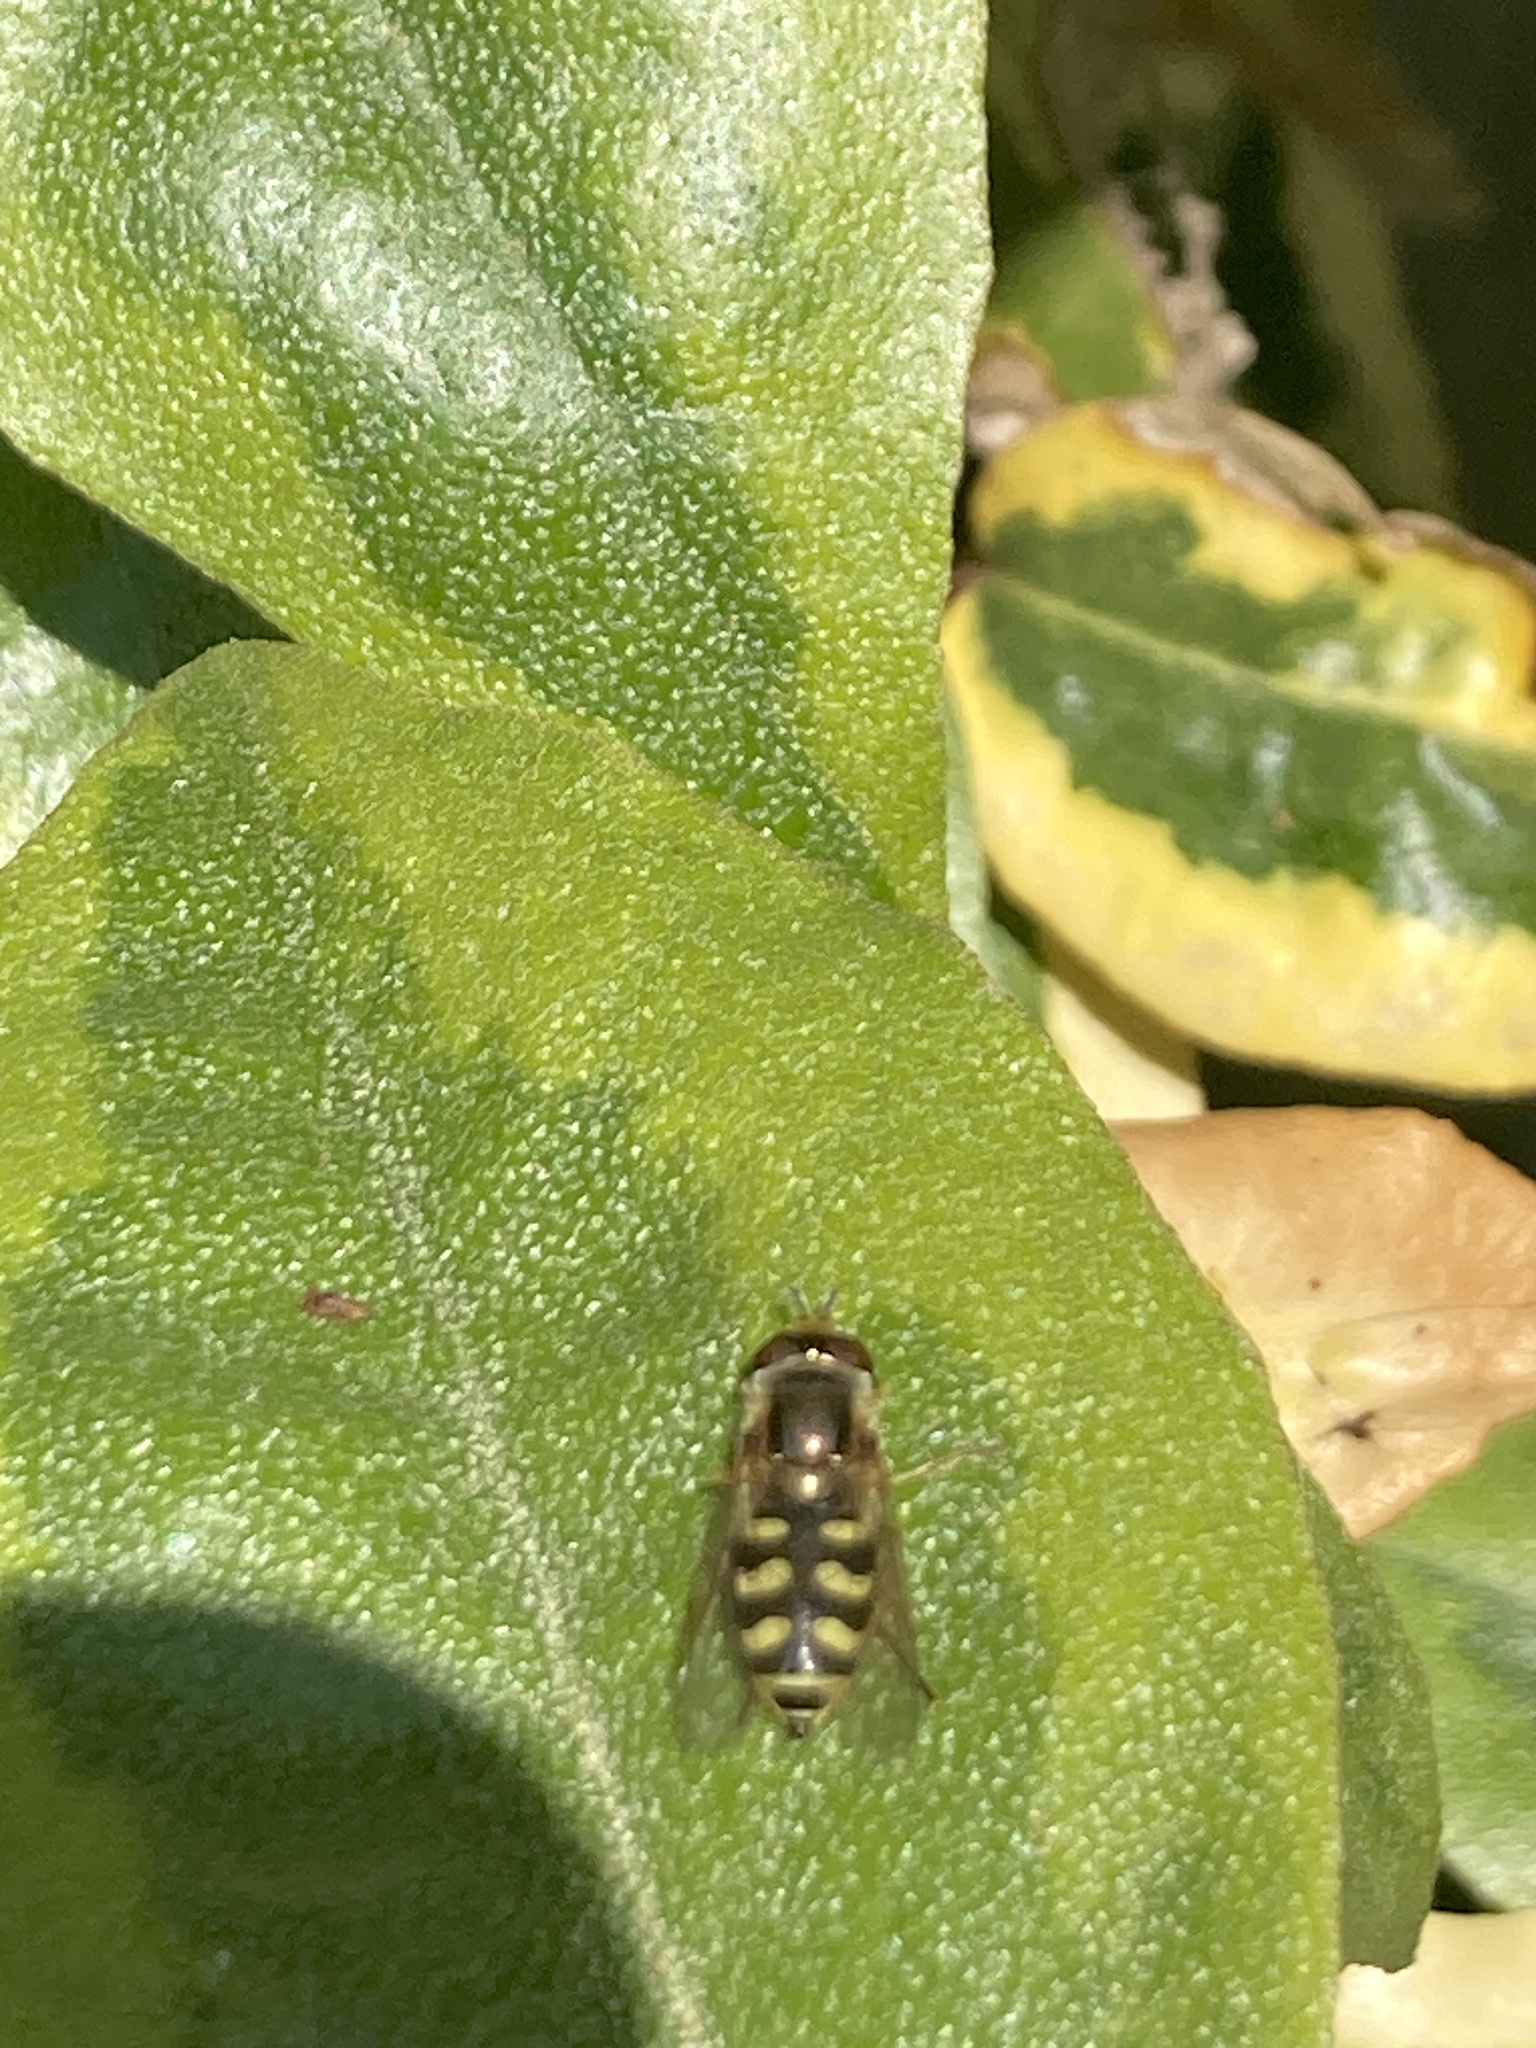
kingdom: Animalia
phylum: Arthropoda
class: Insecta
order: Diptera
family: Syrphidae
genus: Eupeodes
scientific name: Eupeodes corollae
